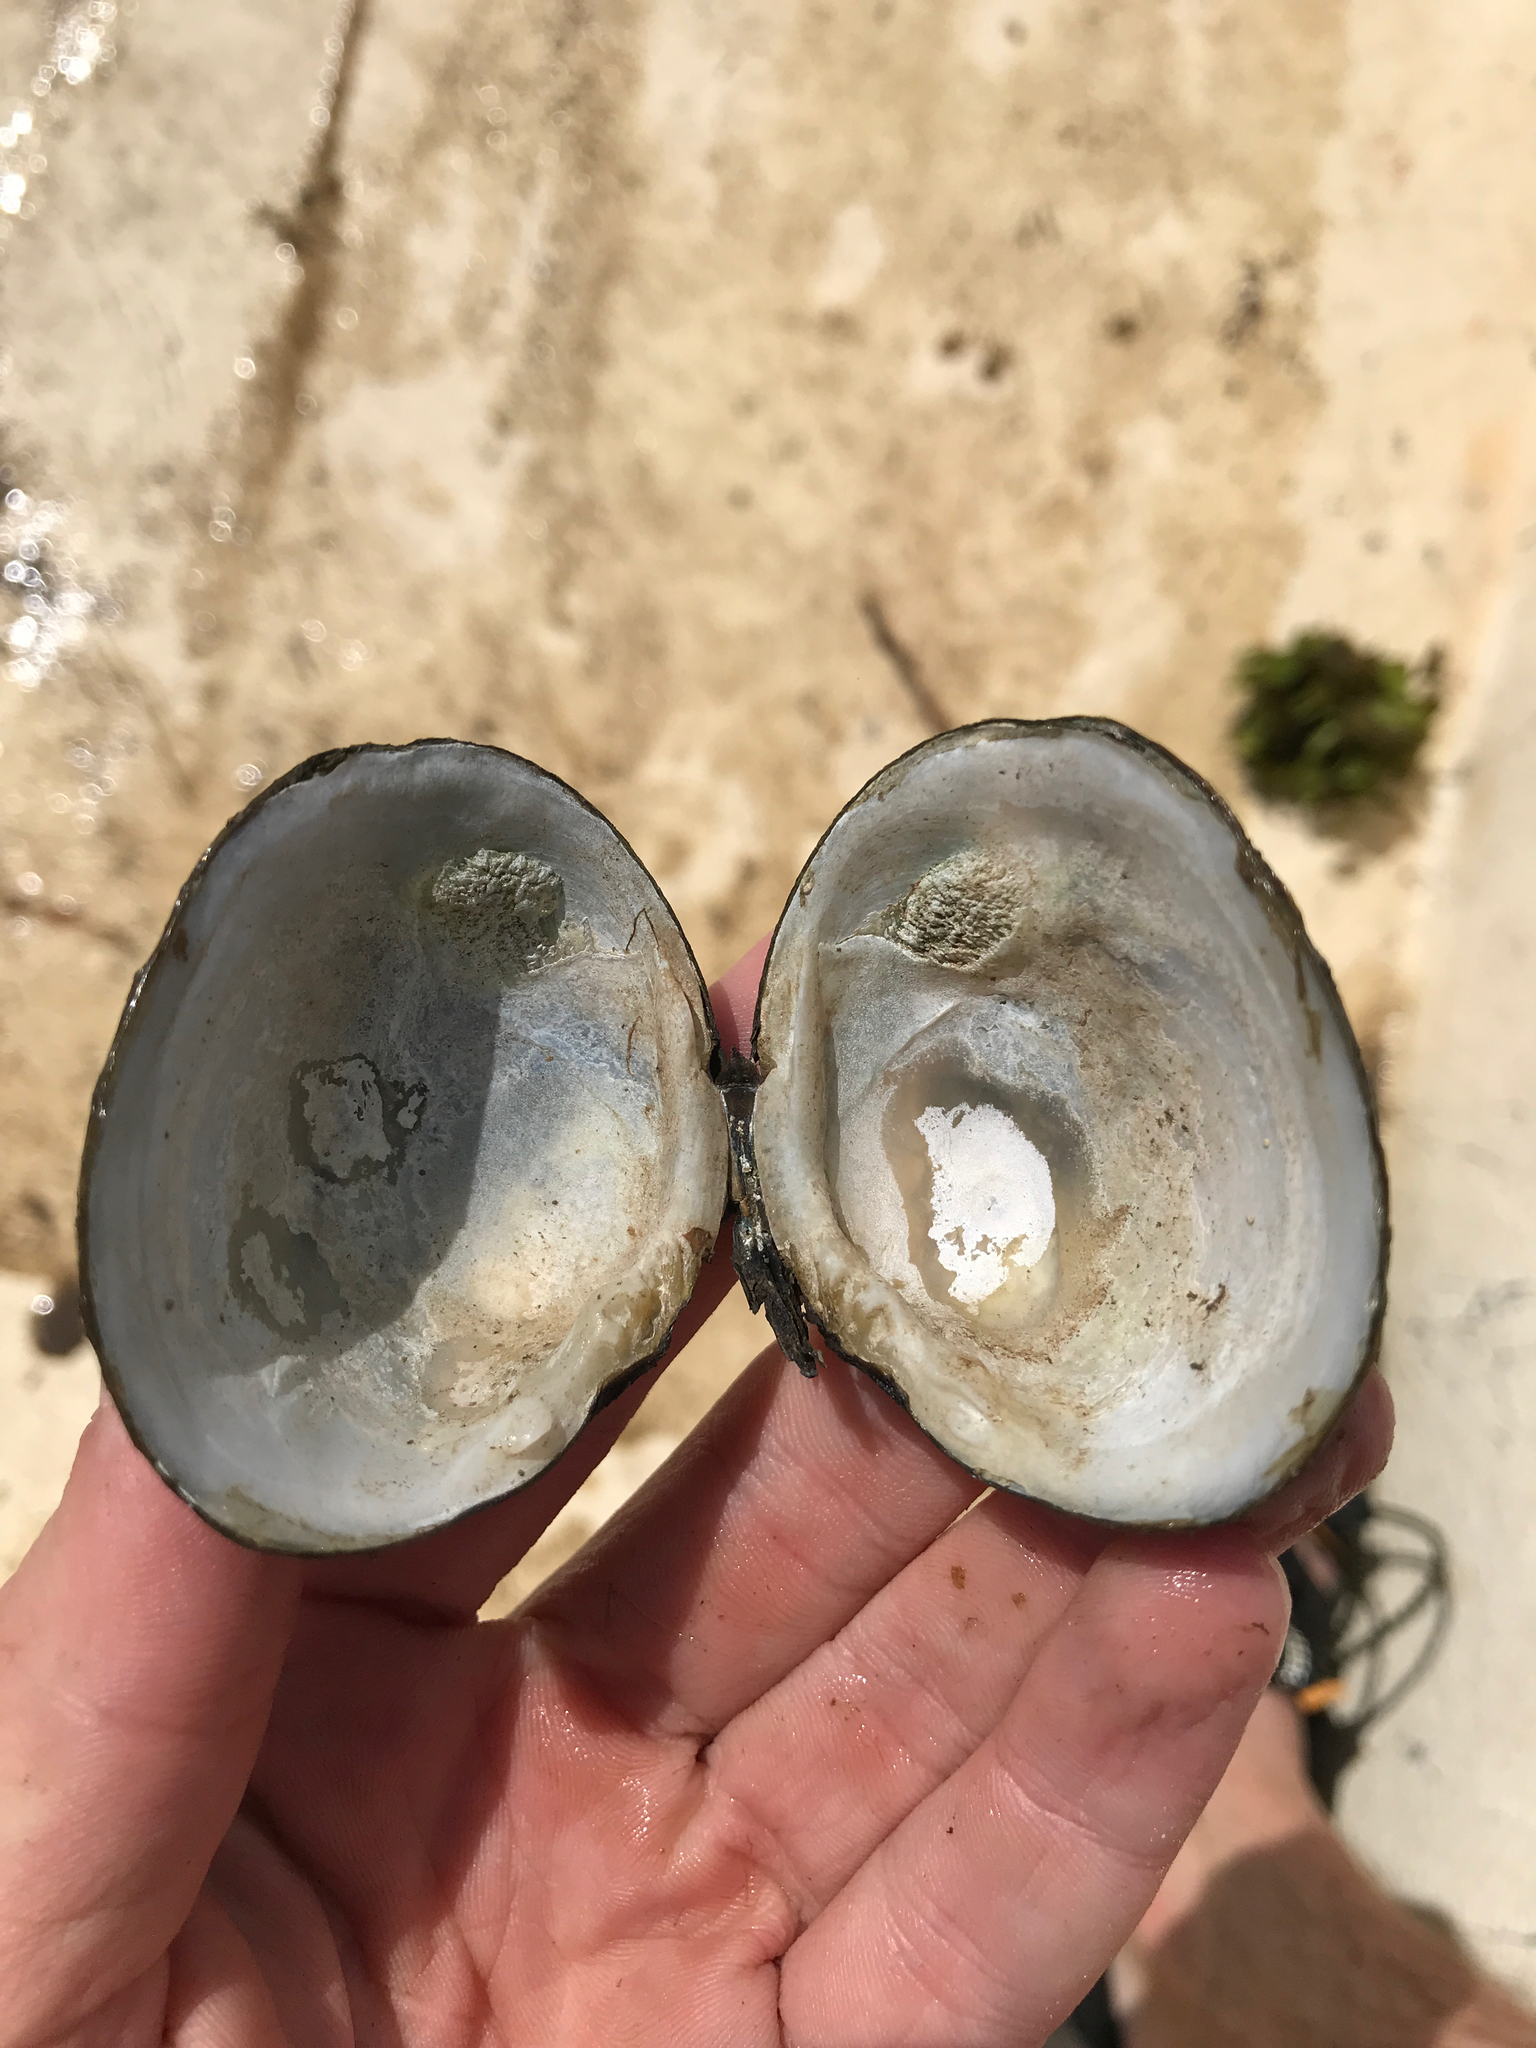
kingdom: Animalia
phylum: Mollusca
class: Bivalvia
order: Venerida
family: Cyrenidae
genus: Polymesoda
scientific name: Polymesoda caroliniana
